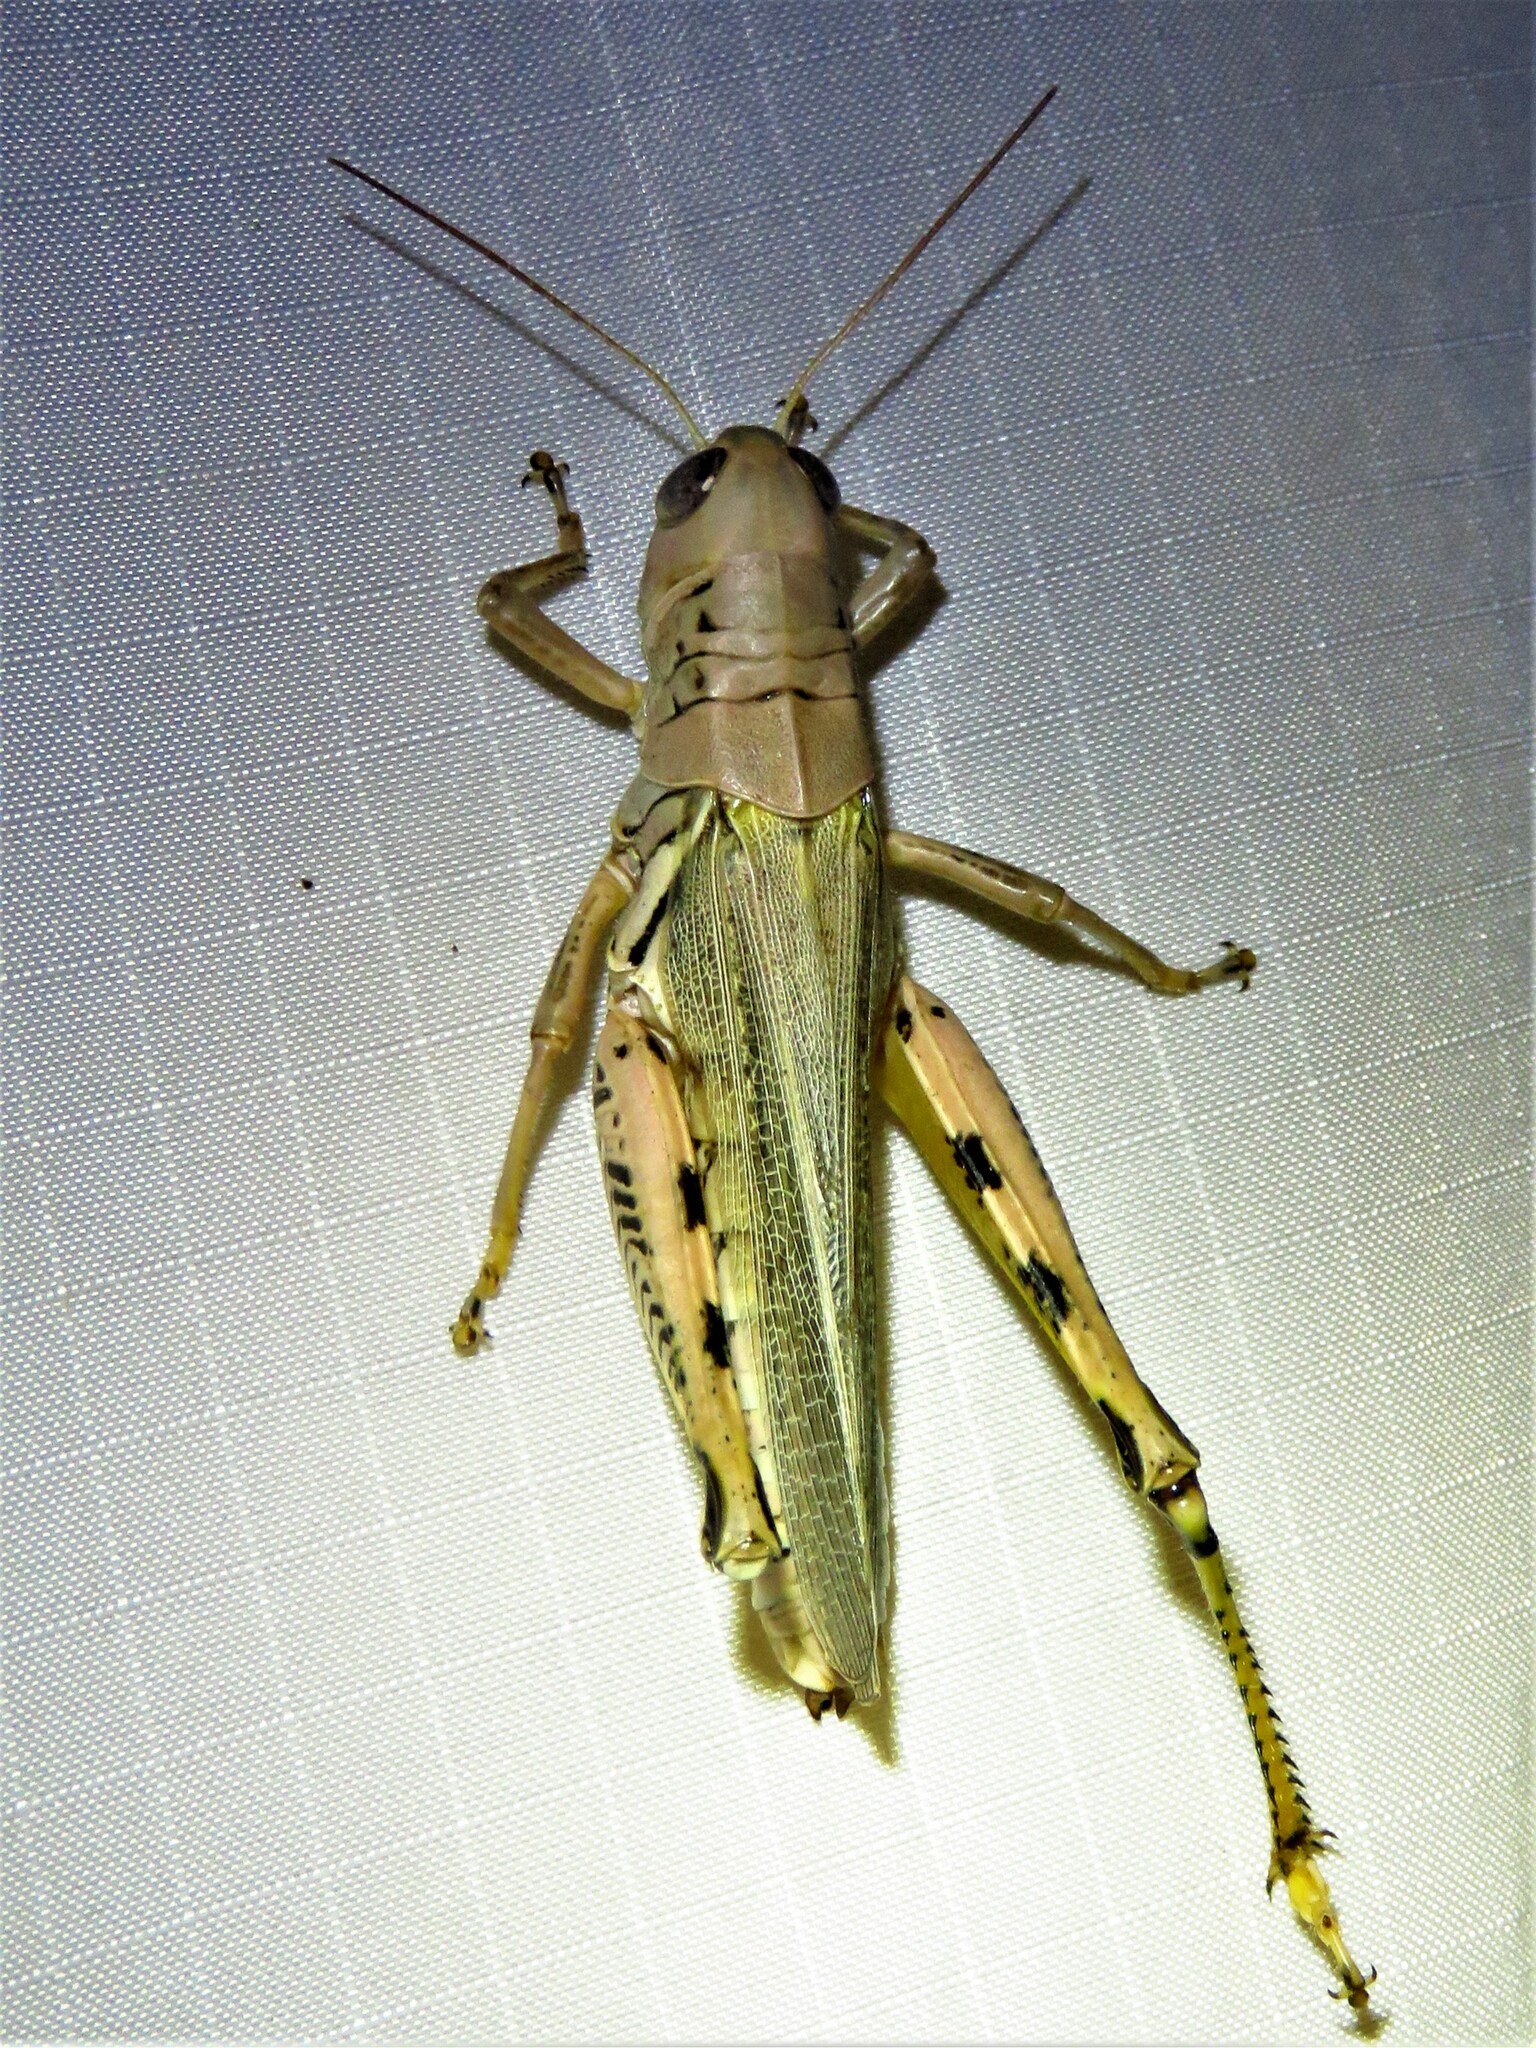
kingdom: Animalia
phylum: Arthropoda
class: Insecta
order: Orthoptera
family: Acrididae
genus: Melanoplus
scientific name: Melanoplus differentialis
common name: Differential grasshopper
